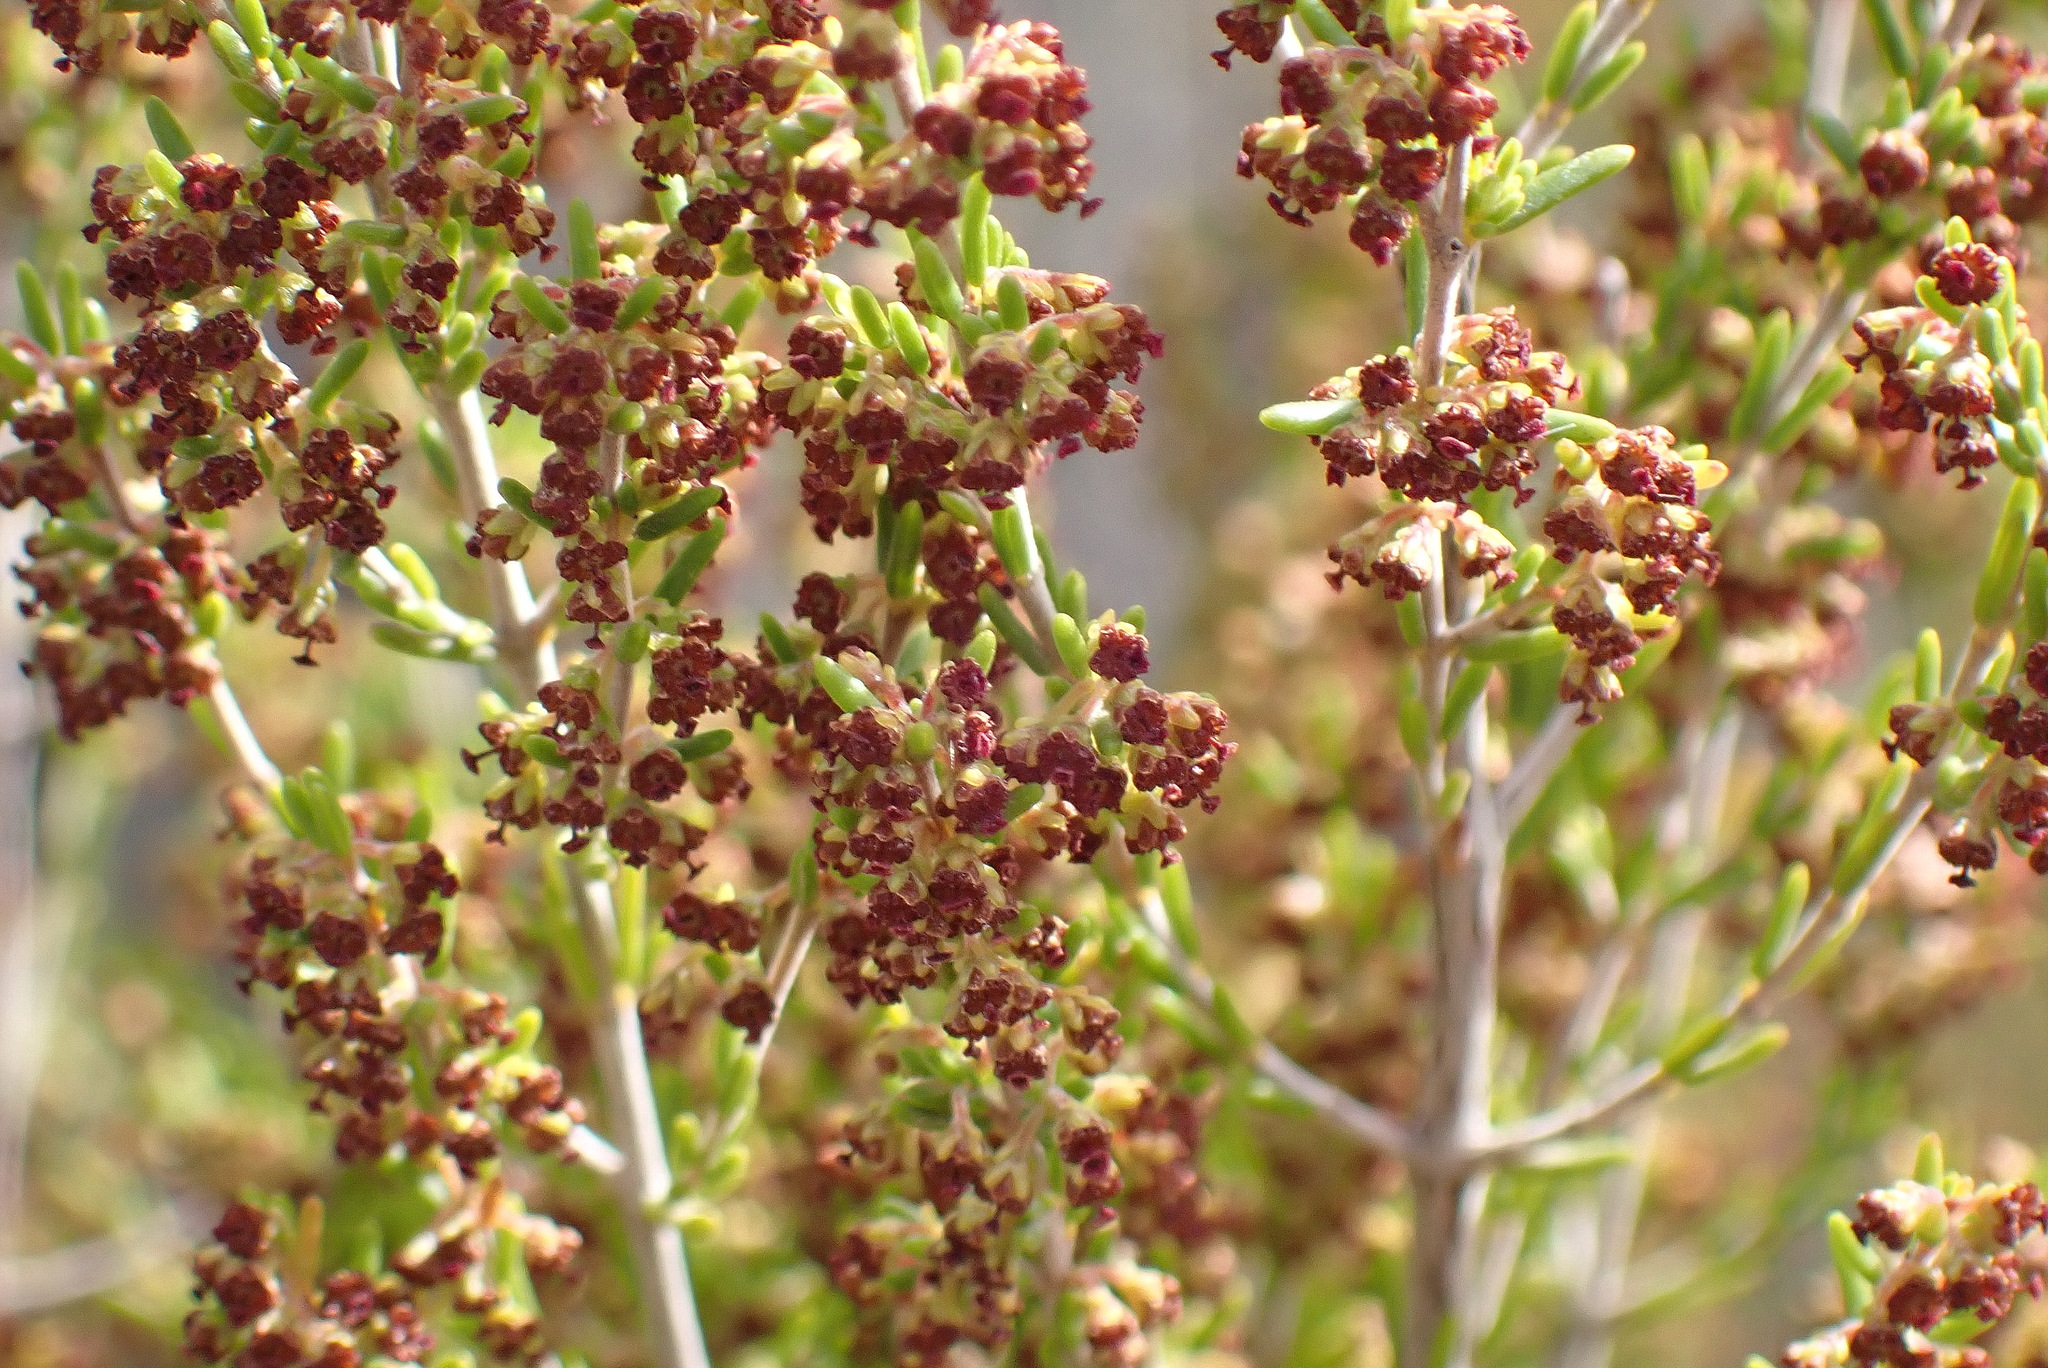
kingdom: Plantae
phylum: Tracheophyta
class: Magnoliopsida
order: Ericales
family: Ericaceae
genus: Erica
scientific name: Erica leucopelta
